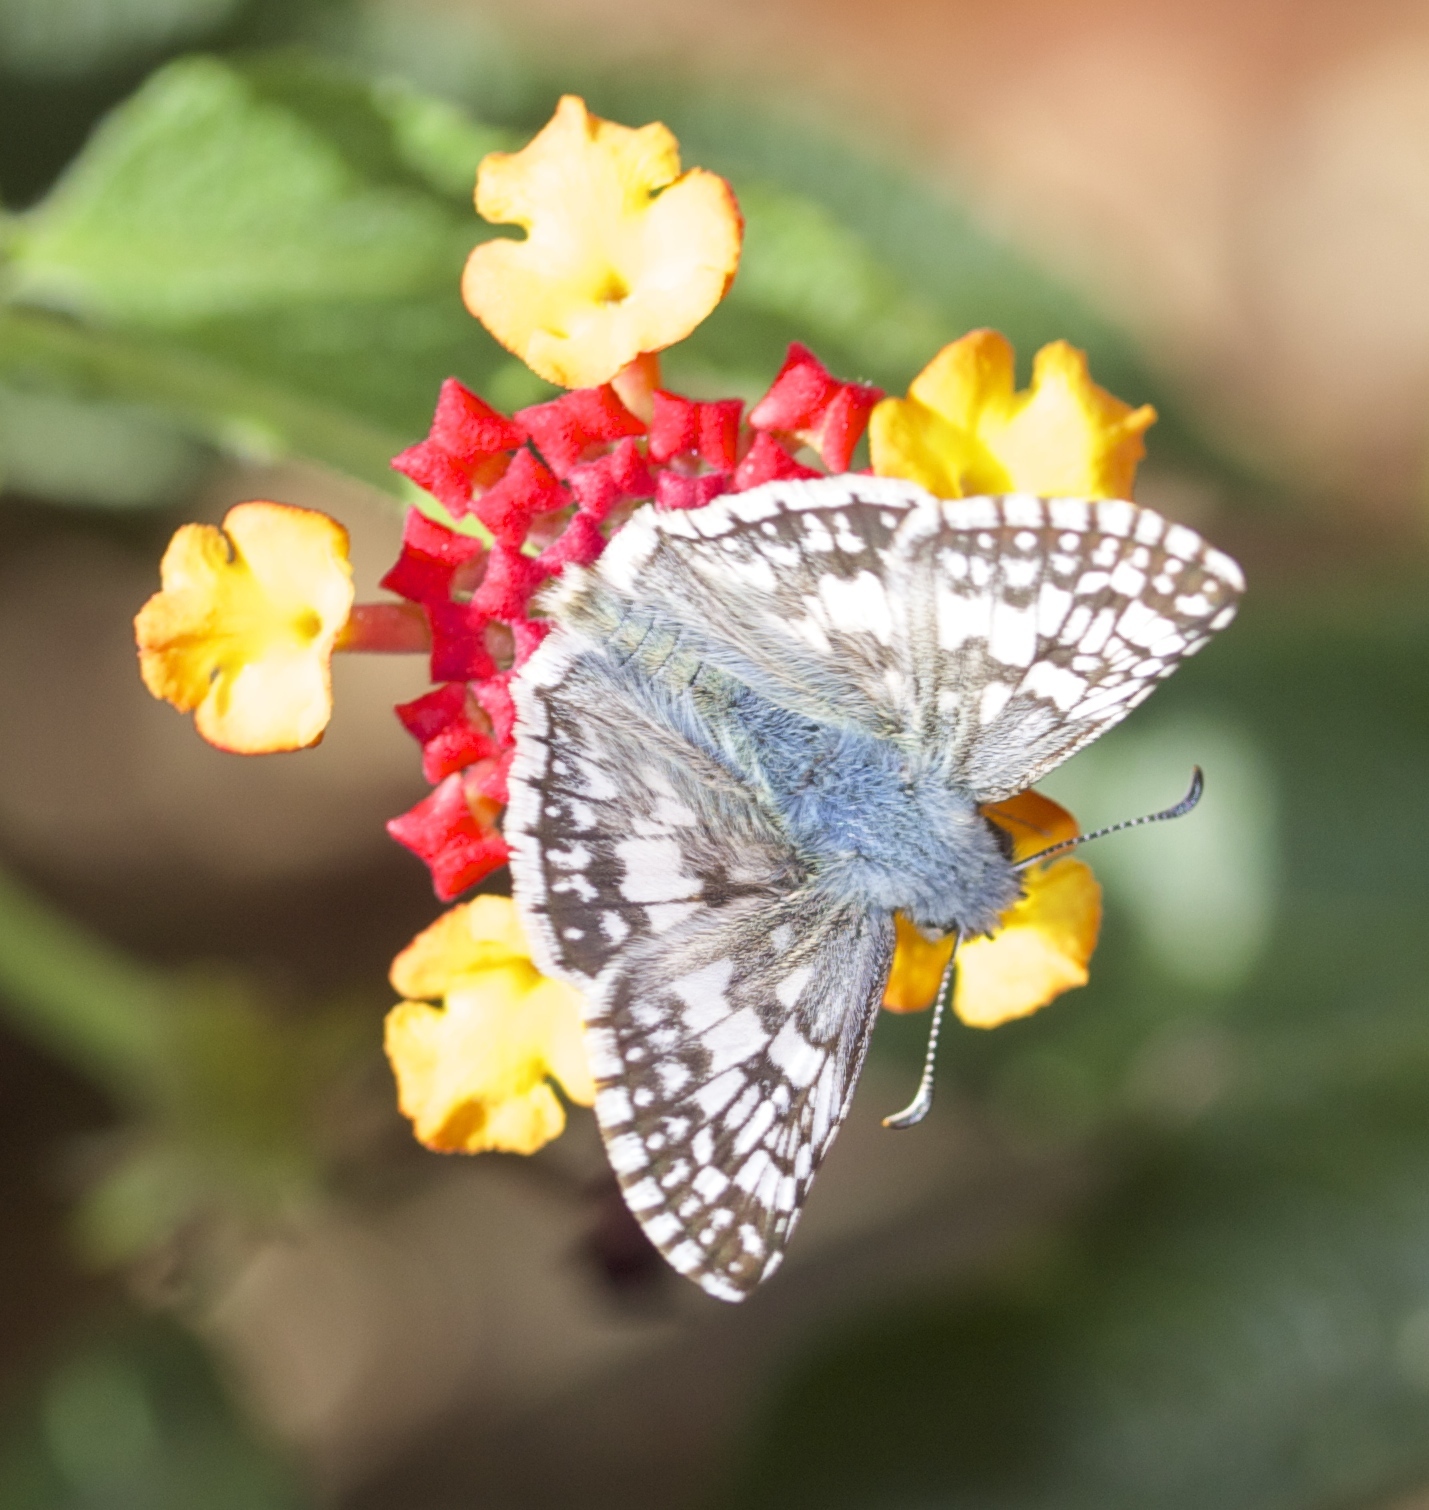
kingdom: Animalia
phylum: Arthropoda
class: Insecta
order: Lepidoptera
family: Hesperiidae
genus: Burnsius
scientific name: Burnsius communis
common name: Common checkered-skipper
